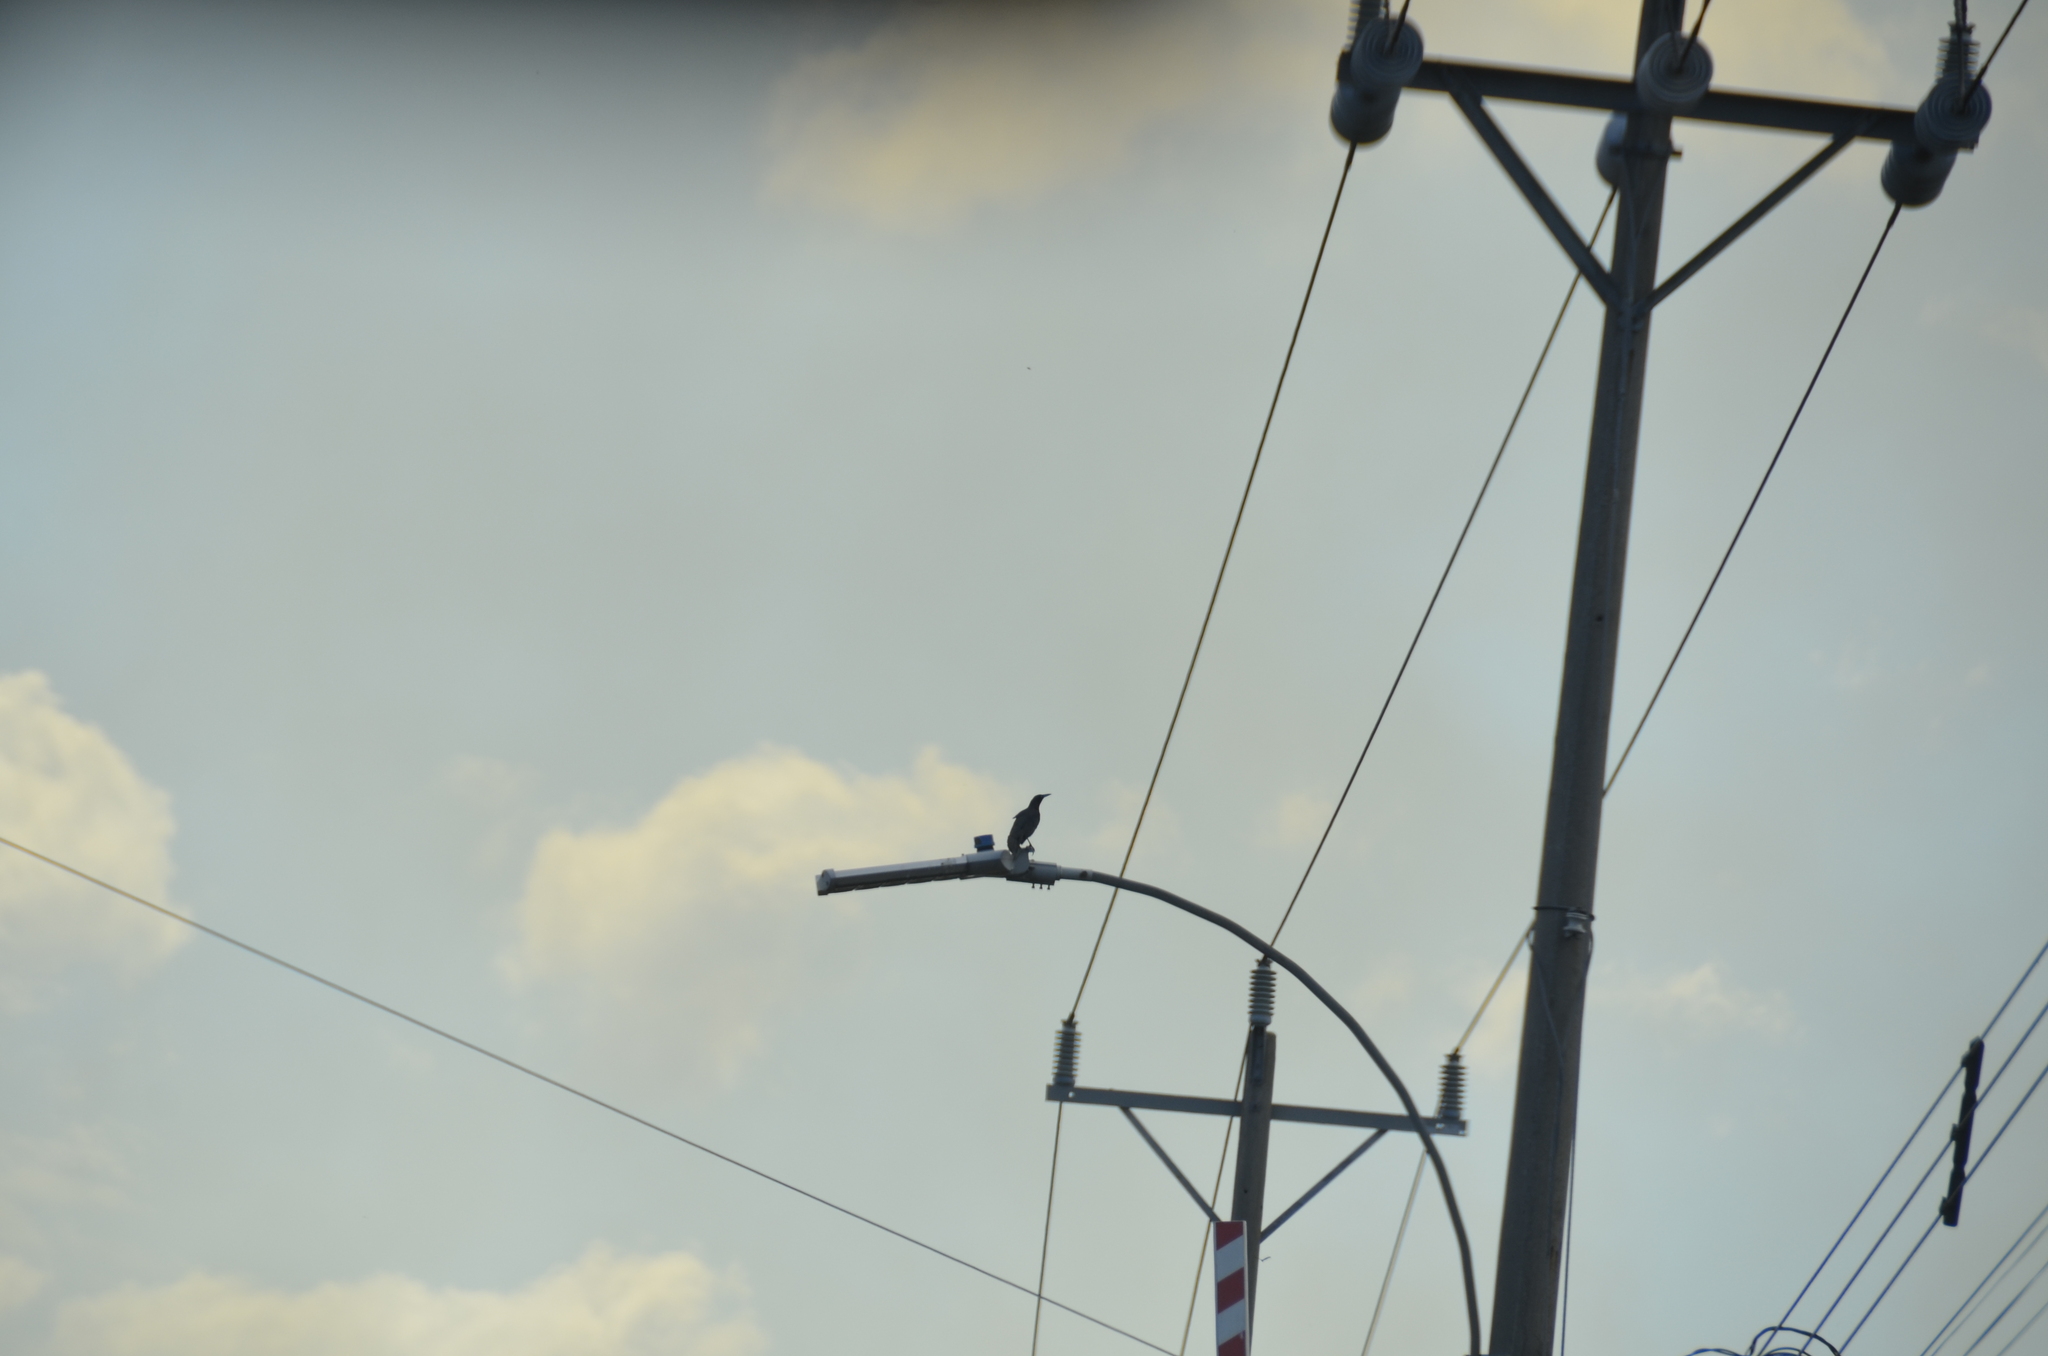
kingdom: Animalia
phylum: Chordata
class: Aves
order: Passeriformes
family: Icteridae
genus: Quiscalus
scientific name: Quiscalus mexicanus
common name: Great-tailed grackle
